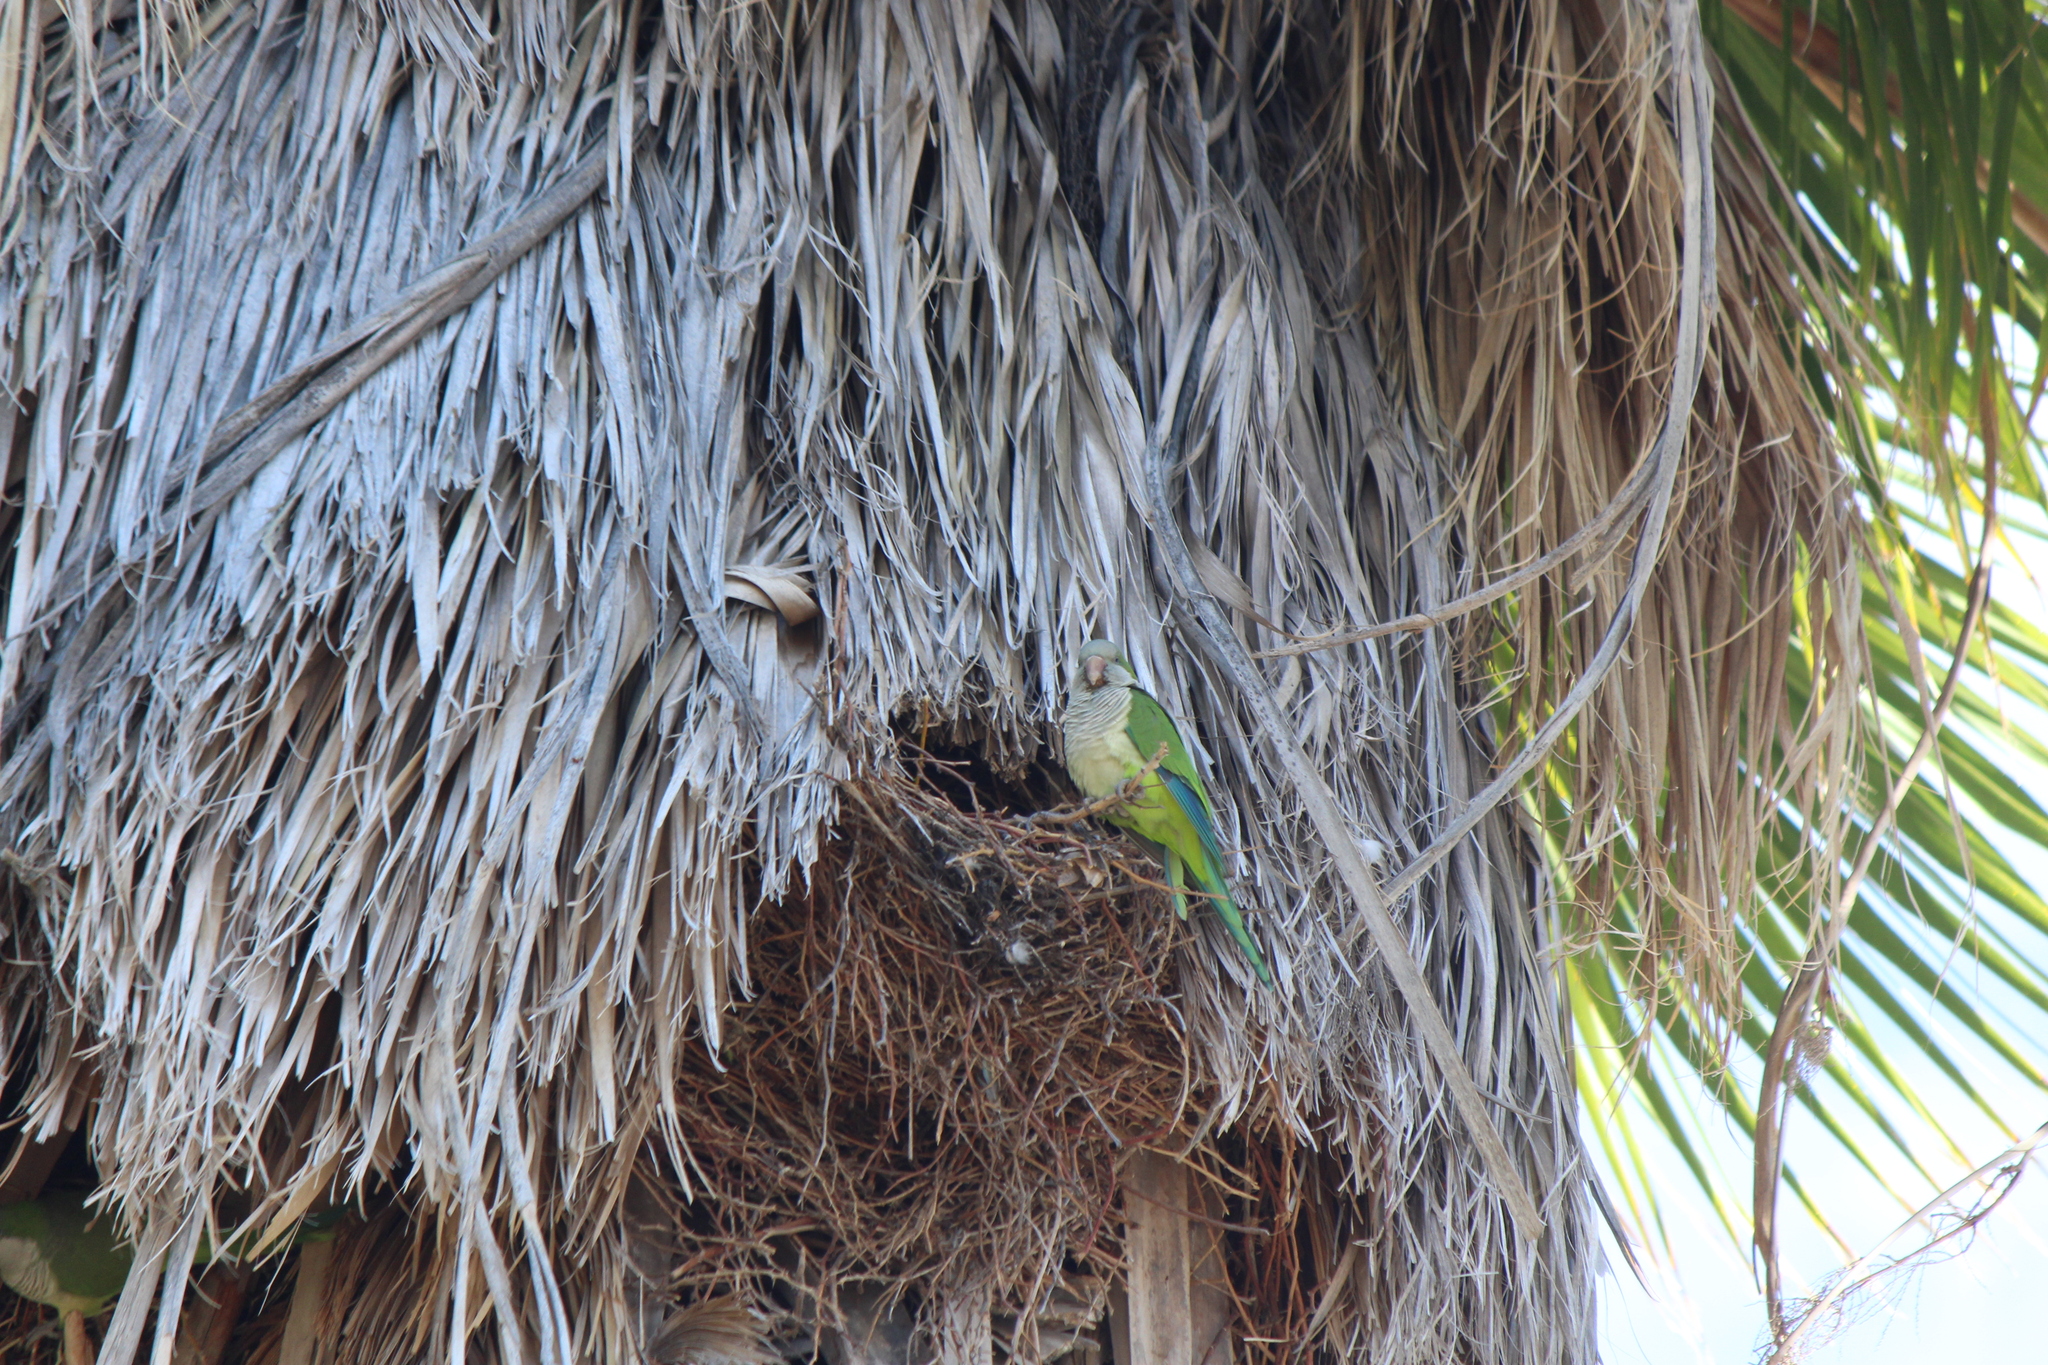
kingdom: Animalia
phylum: Chordata
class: Aves
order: Psittaciformes
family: Psittacidae
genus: Myiopsitta
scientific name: Myiopsitta monachus
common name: Monk parakeet
